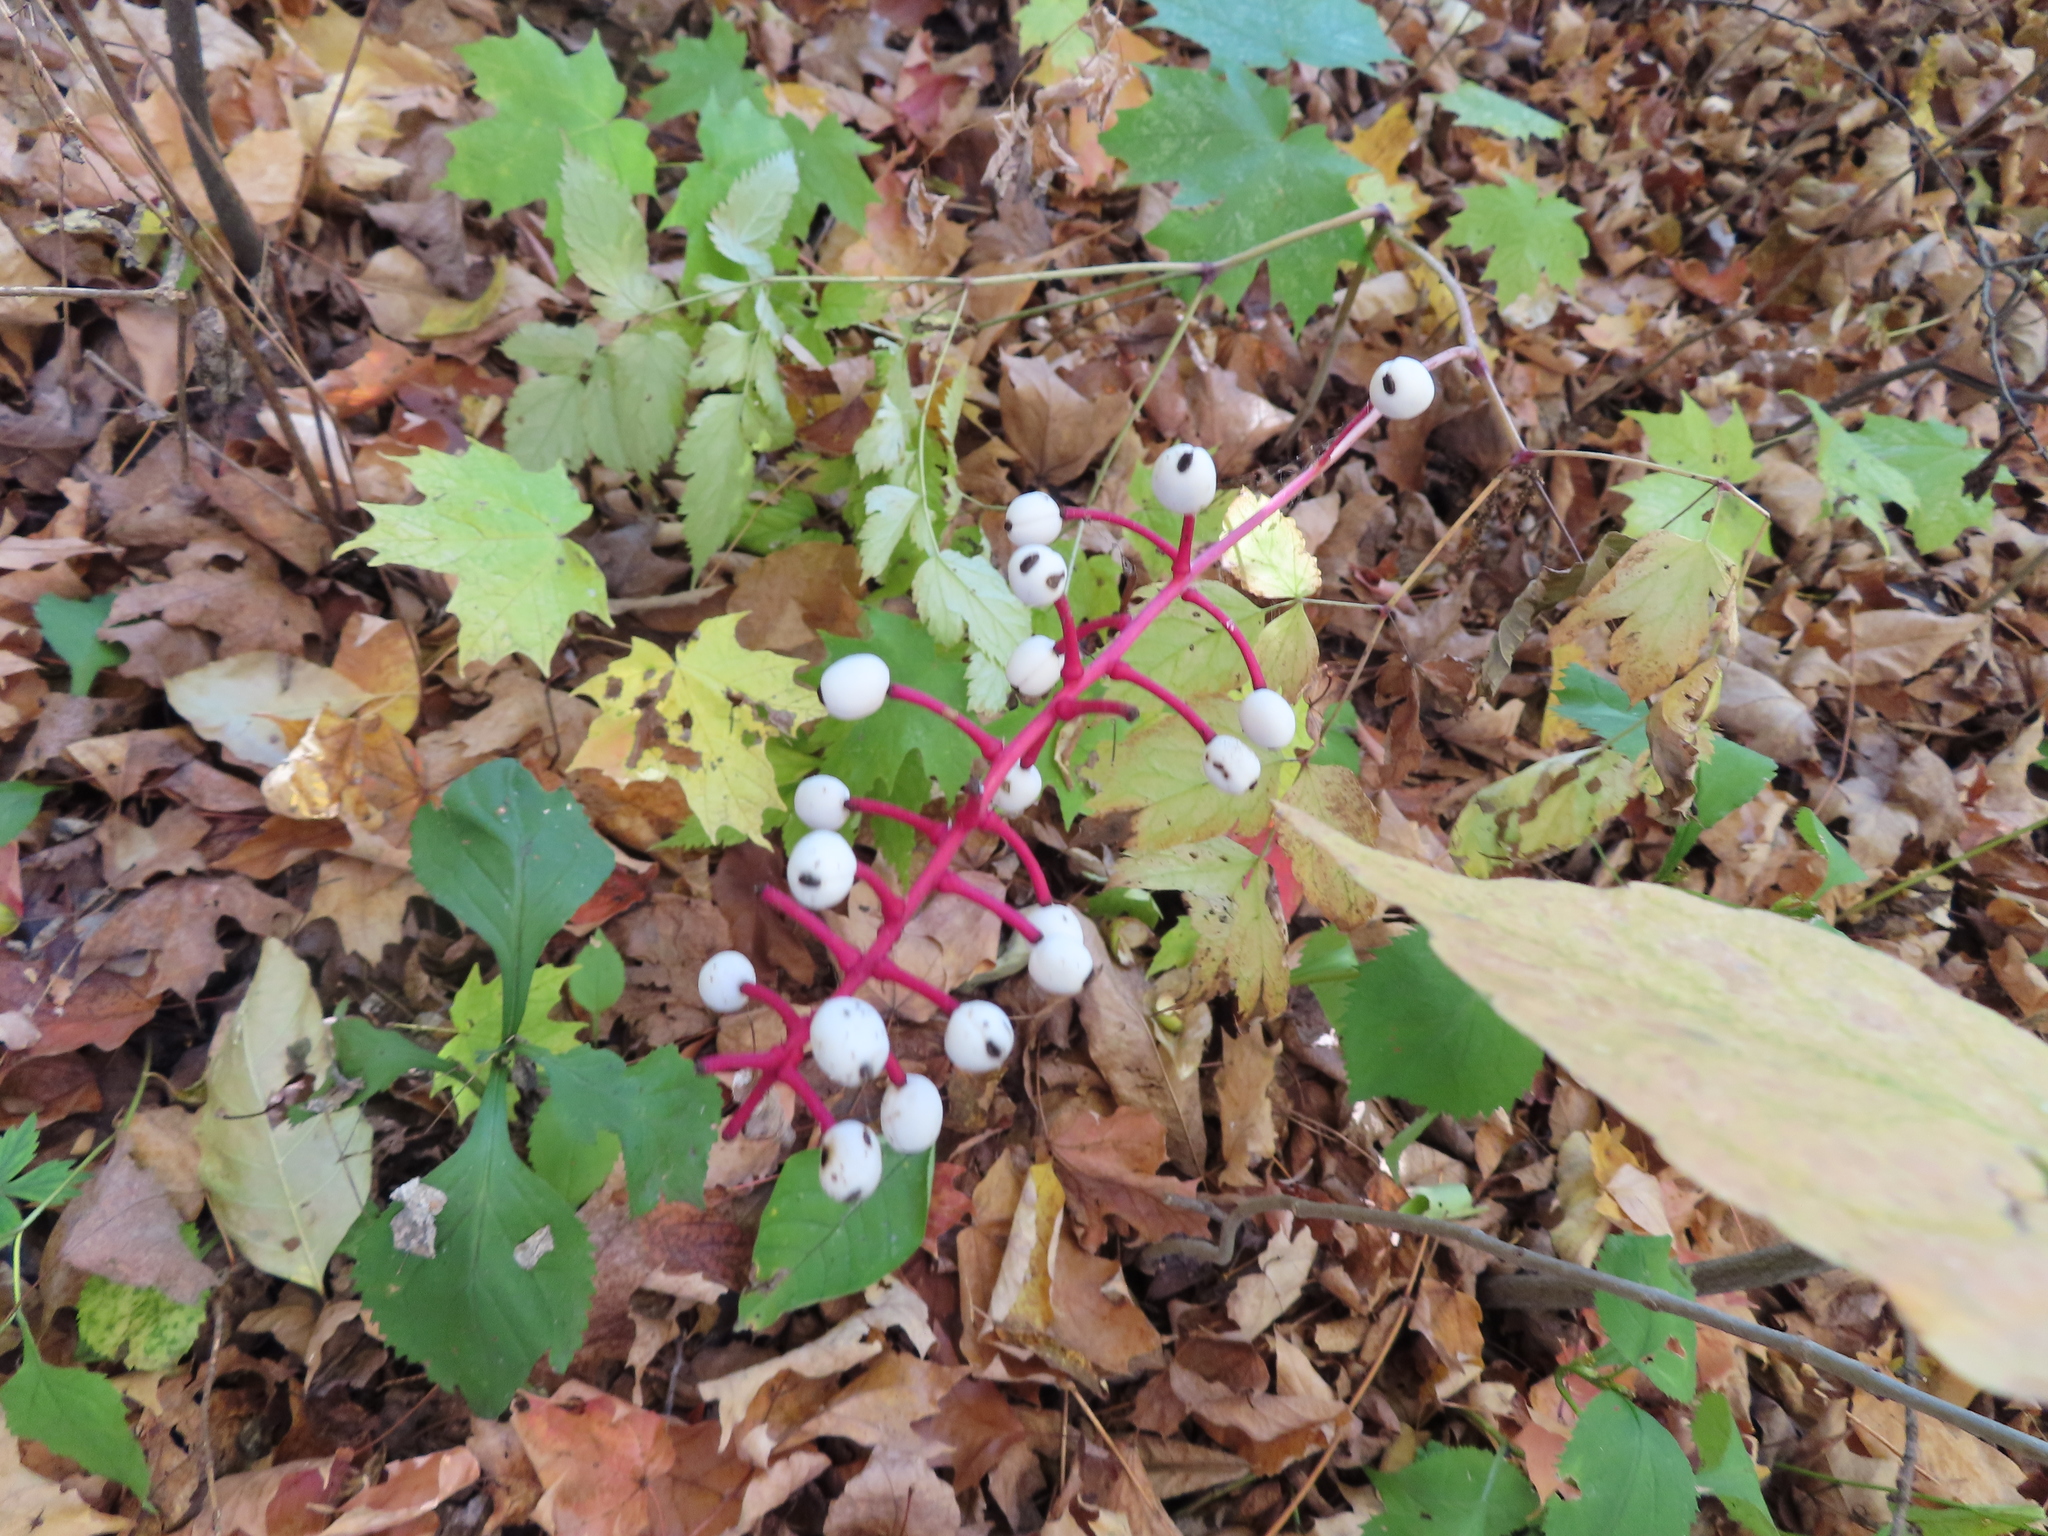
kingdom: Plantae
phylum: Tracheophyta
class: Magnoliopsida
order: Ranunculales
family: Ranunculaceae
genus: Actaea
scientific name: Actaea pachypoda
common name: Doll's-eyes
